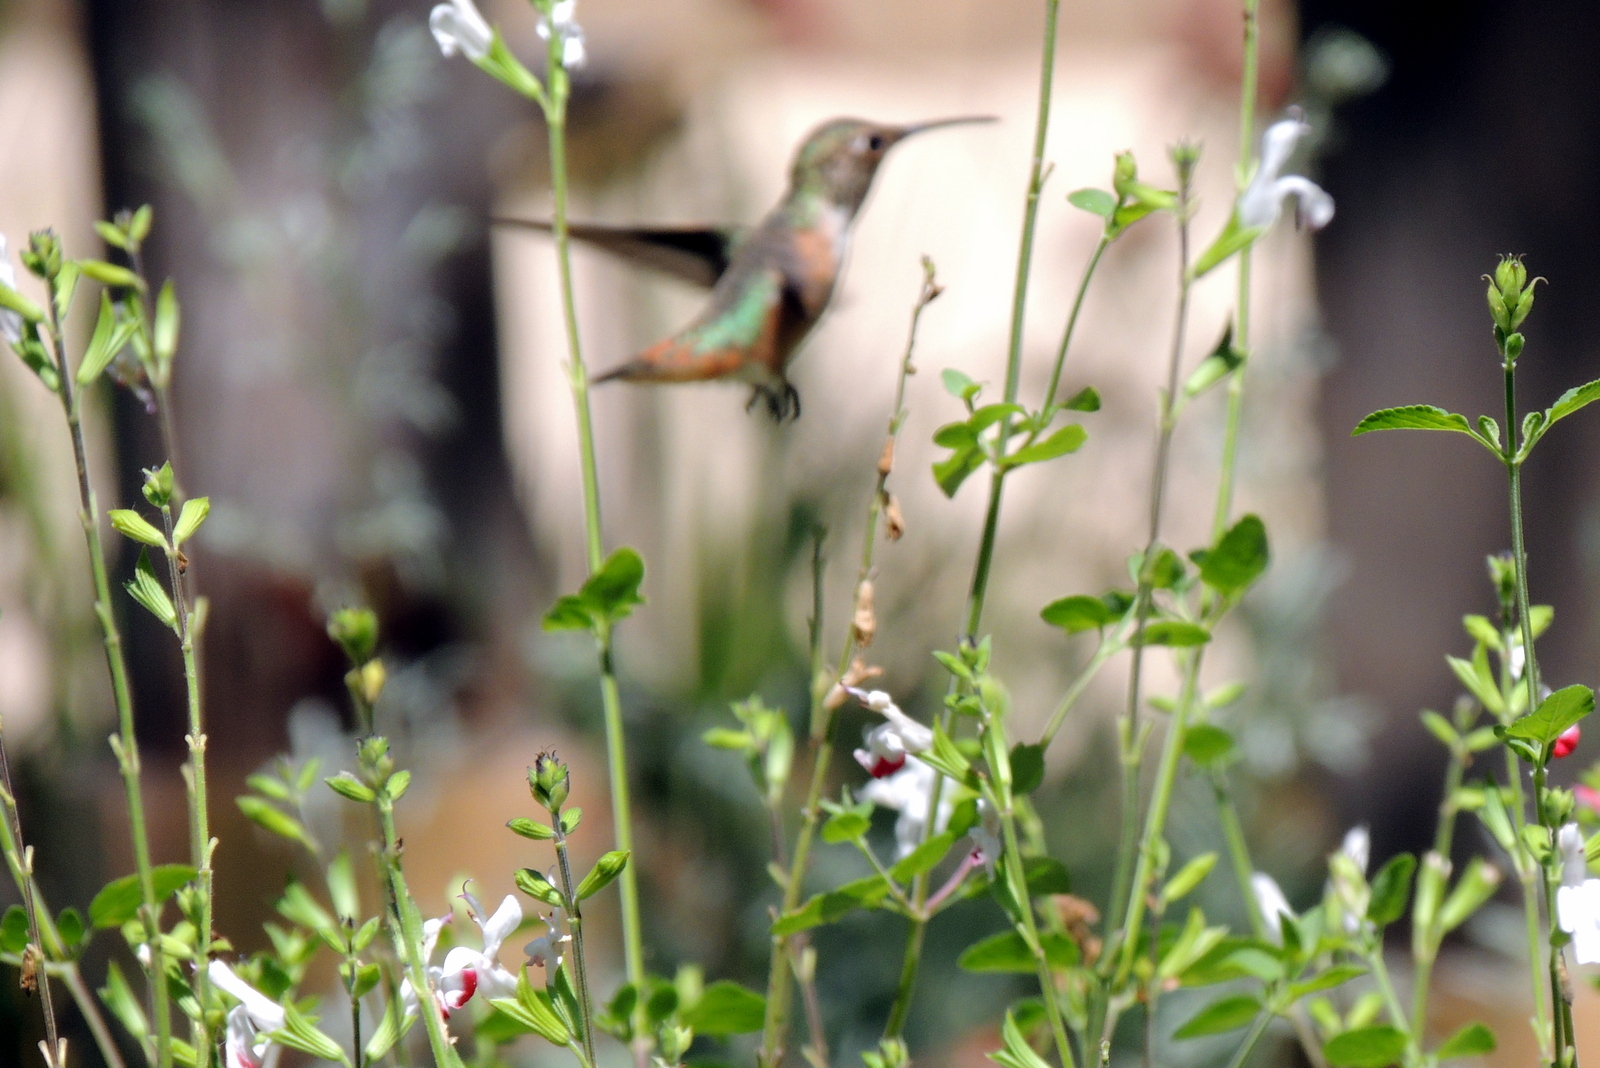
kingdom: Animalia
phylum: Chordata
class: Aves
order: Apodiformes
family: Trochilidae
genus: Selasphorus
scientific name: Selasphorus
